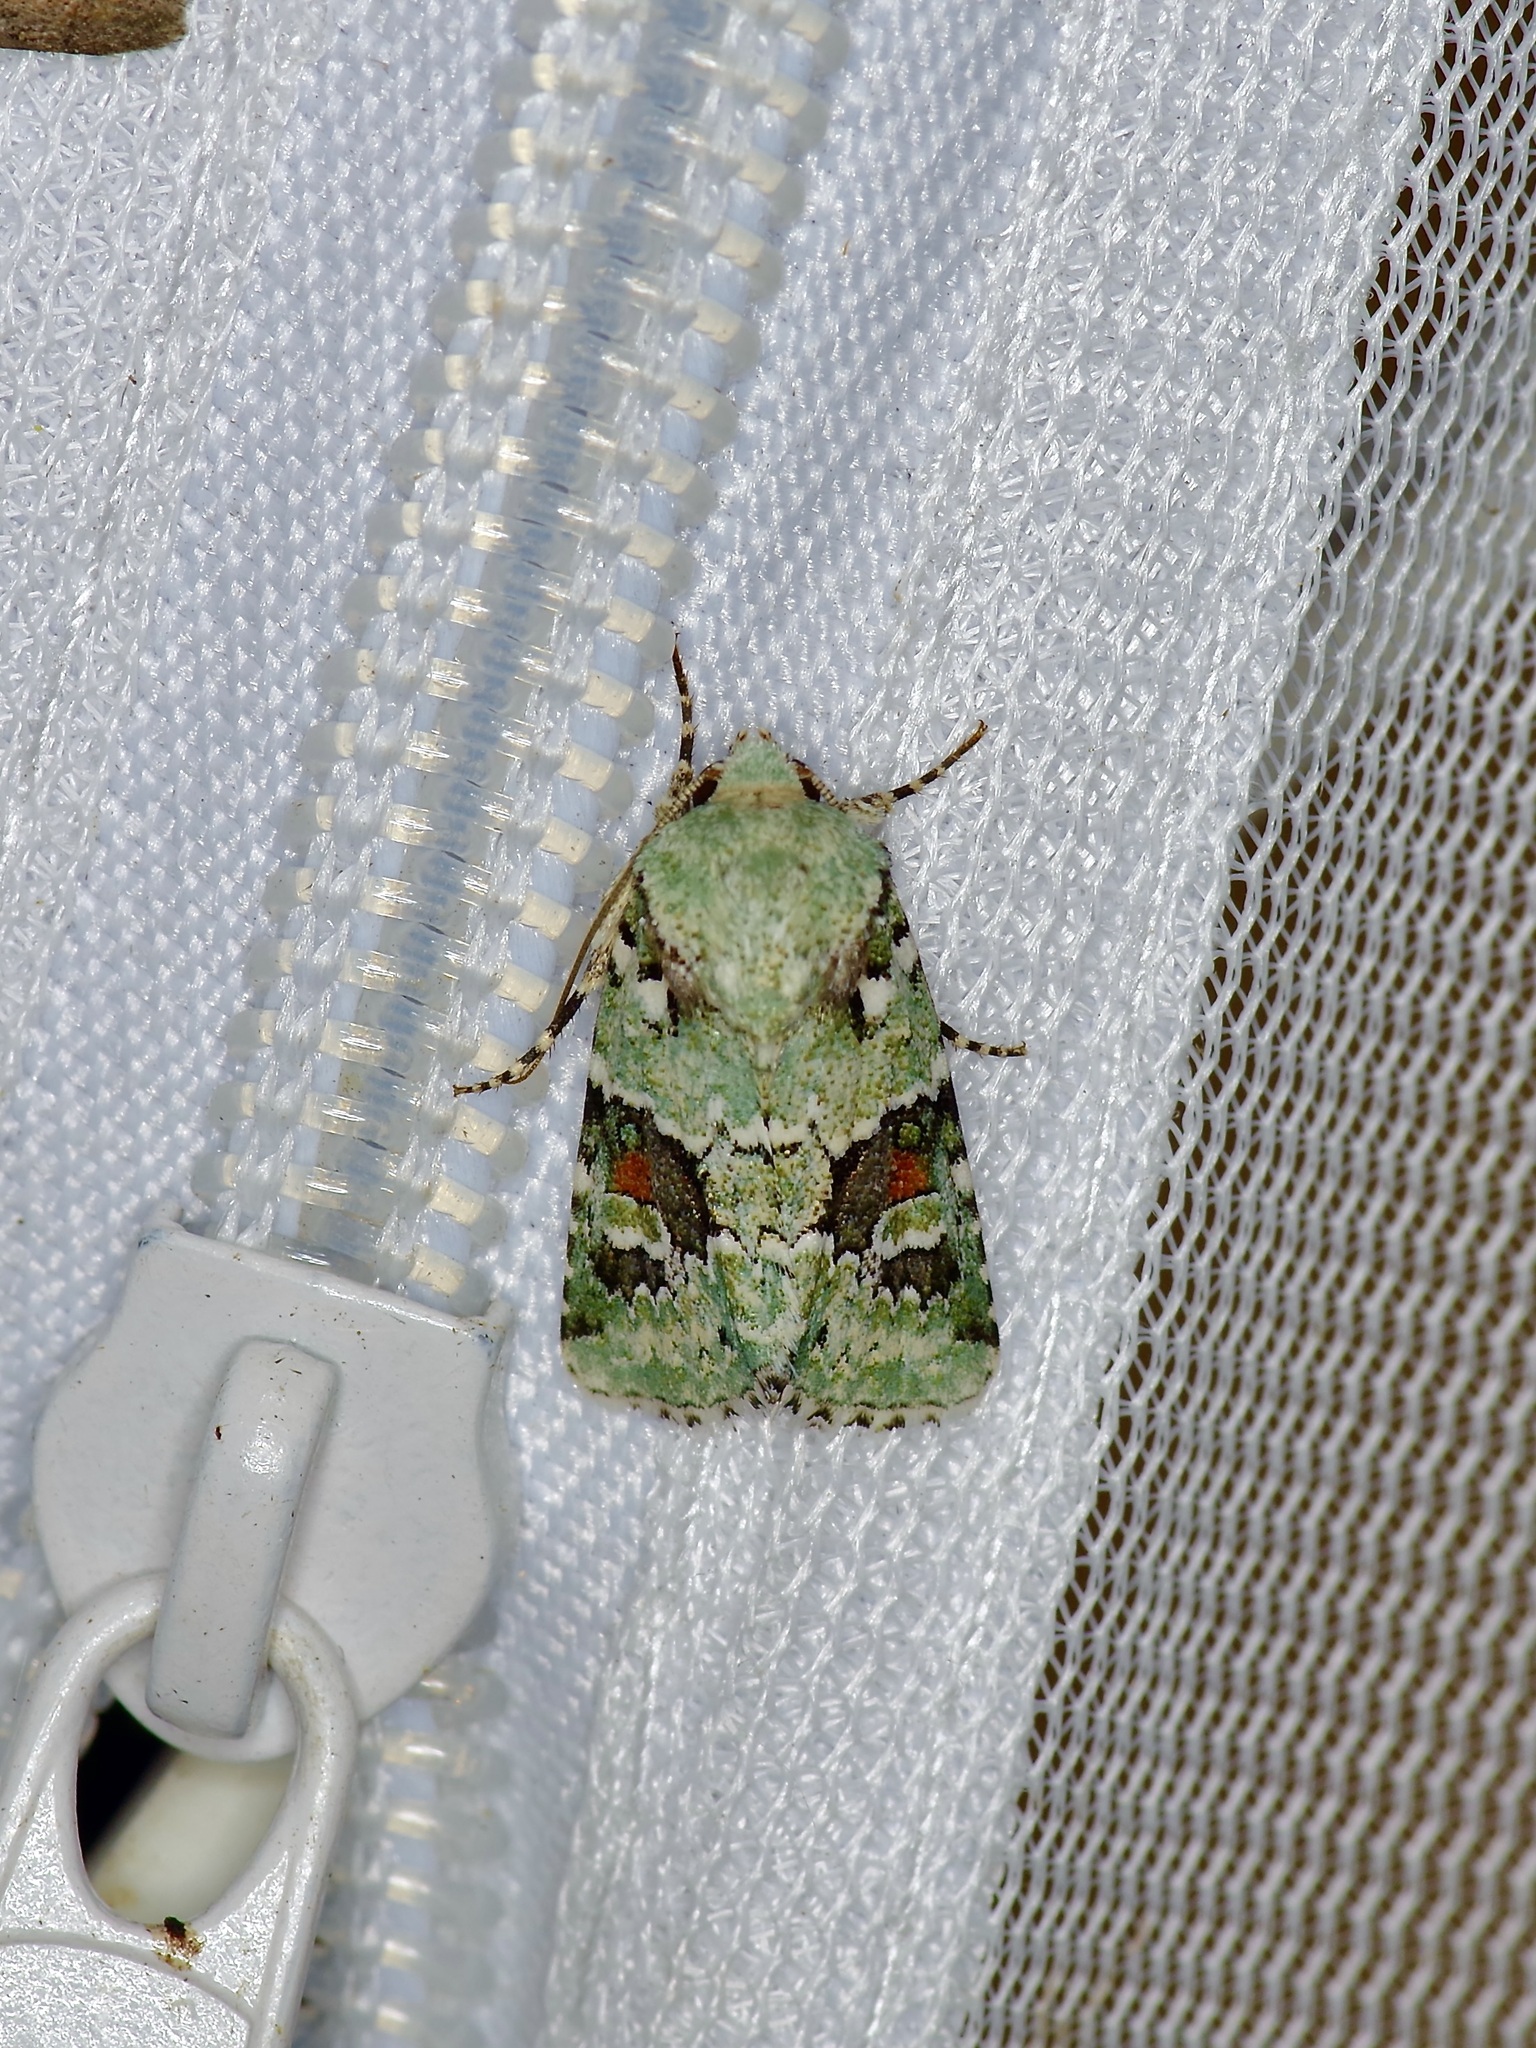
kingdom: Animalia
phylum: Arthropoda
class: Insecta
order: Lepidoptera
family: Noctuidae
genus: Lacinipolia
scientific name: Lacinipolia laudabilis
